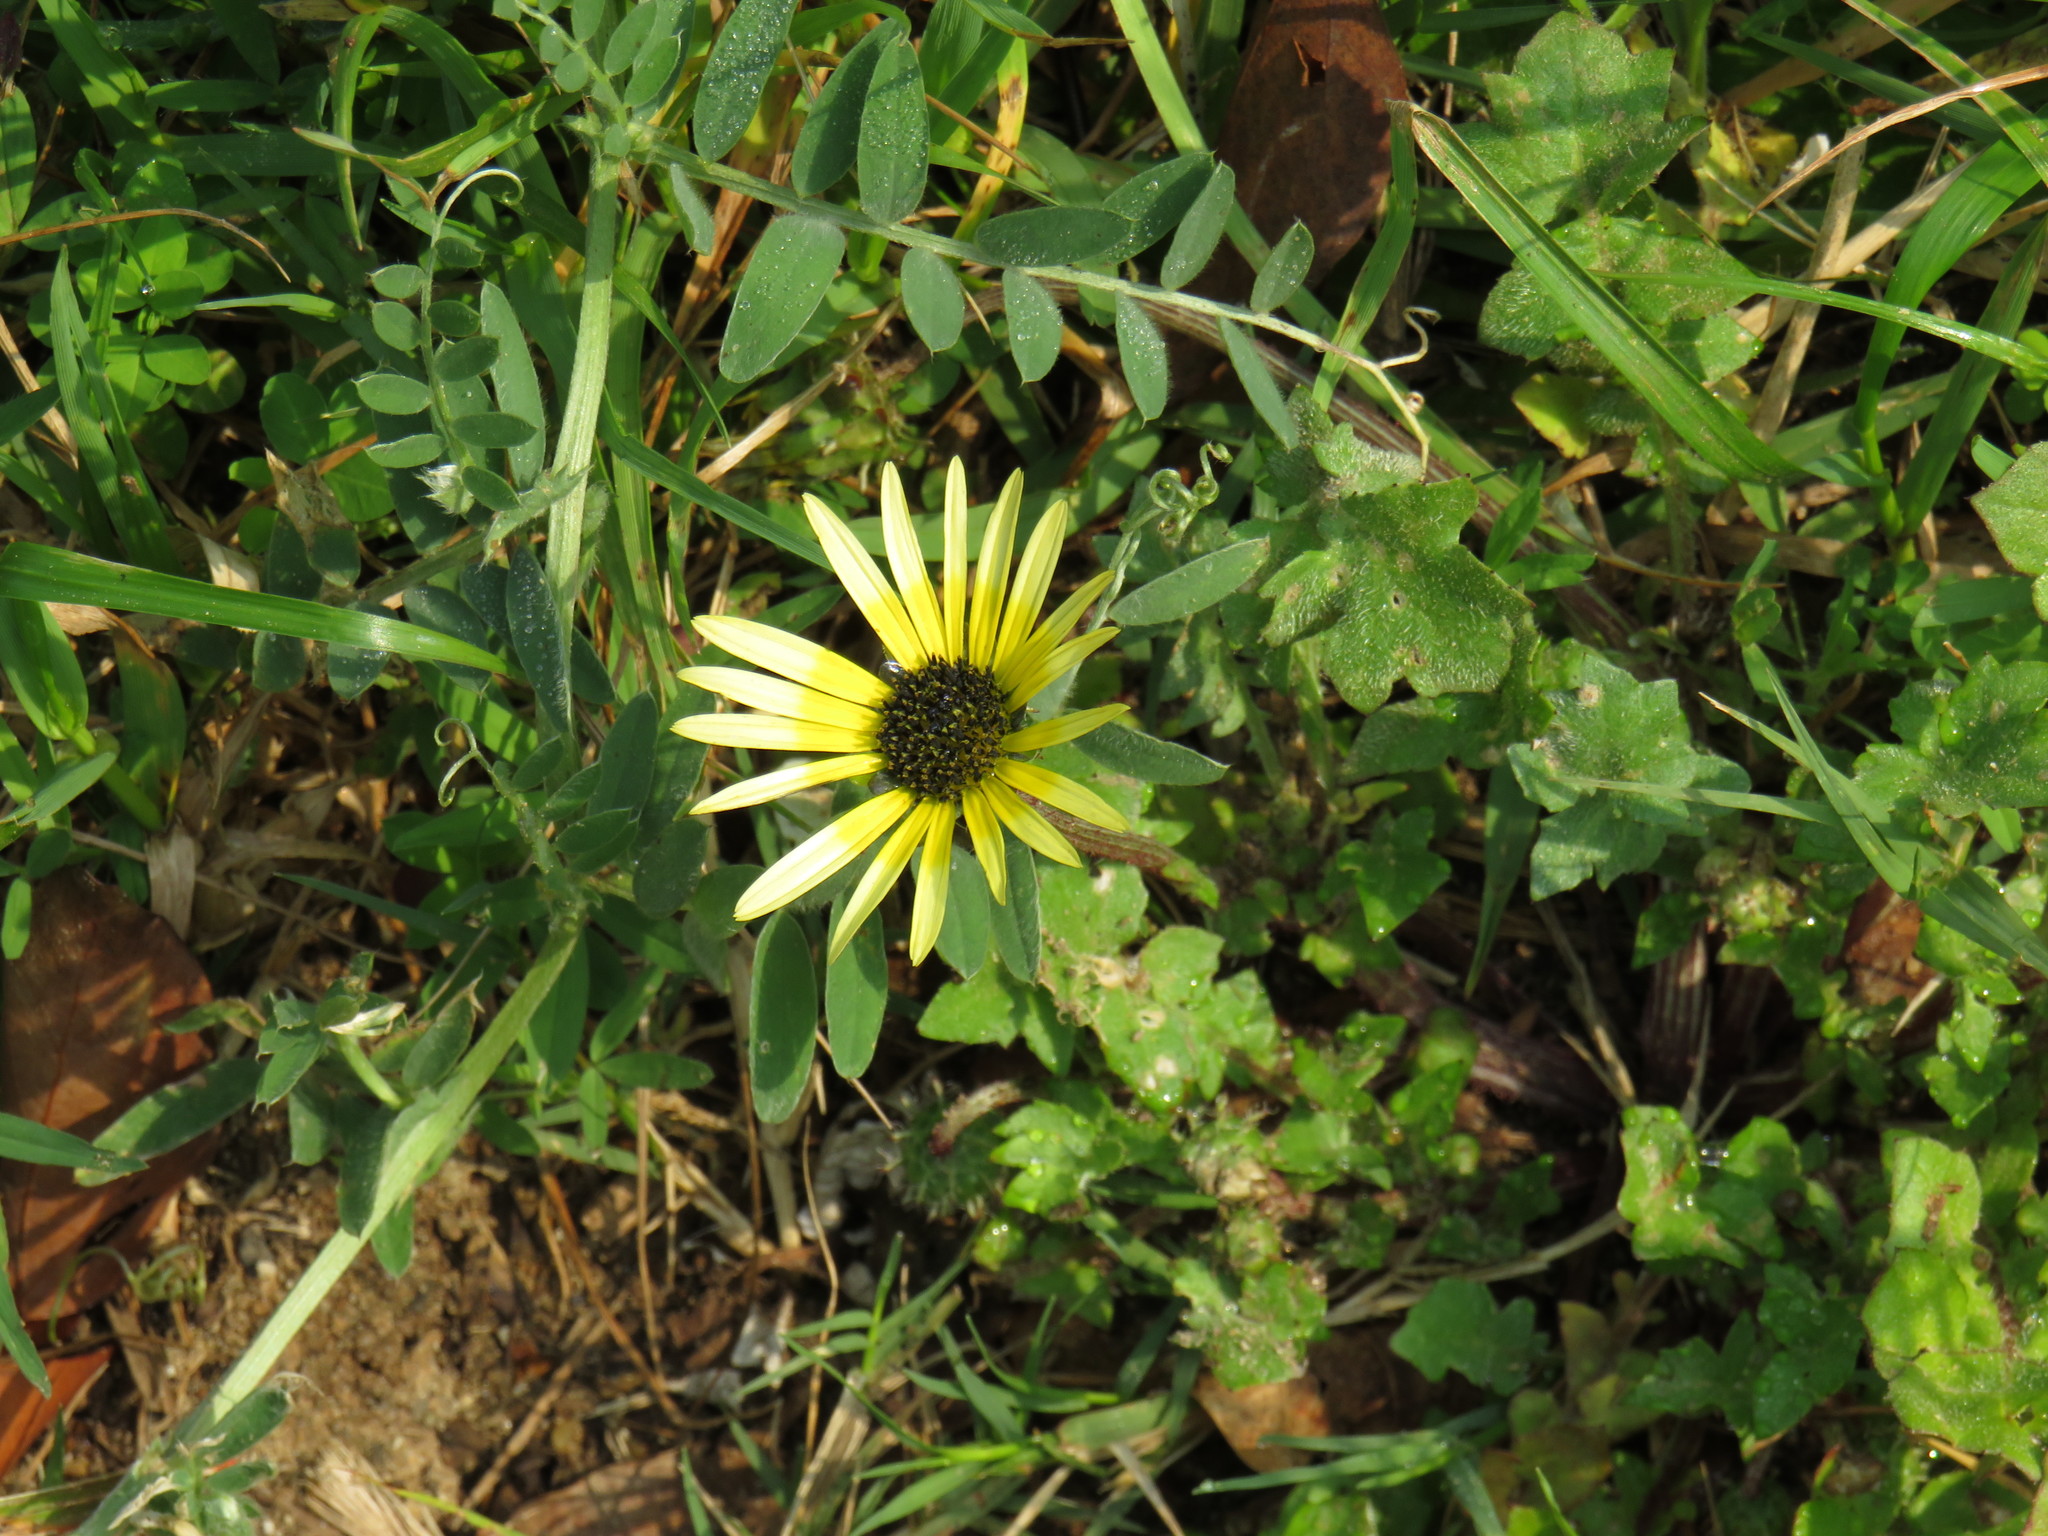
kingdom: Plantae
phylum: Tracheophyta
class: Magnoliopsida
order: Asterales
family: Asteraceae
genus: Arctotheca
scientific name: Arctotheca calendula
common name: Capeweed
